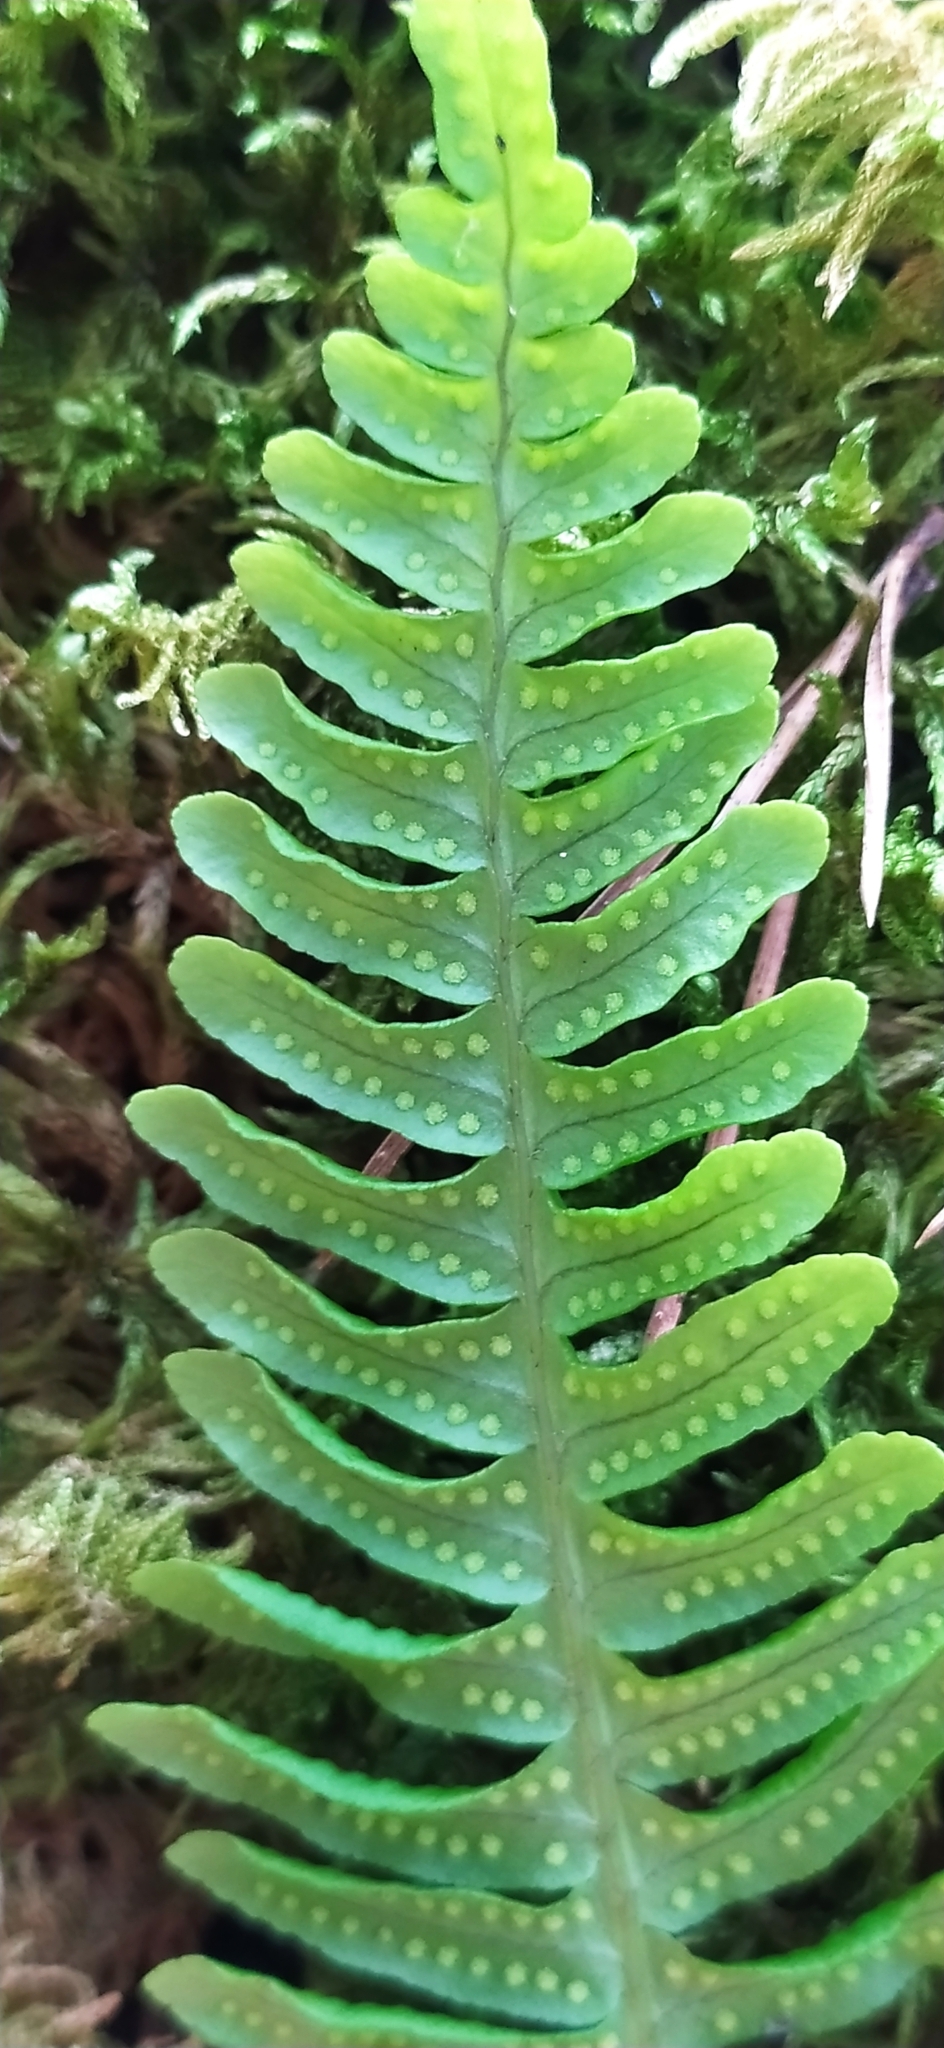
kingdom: Plantae
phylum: Tracheophyta
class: Polypodiopsida
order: Polypodiales
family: Polypodiaceae
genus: Polypodium
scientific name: Polypodium vulgare
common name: Common polypody
